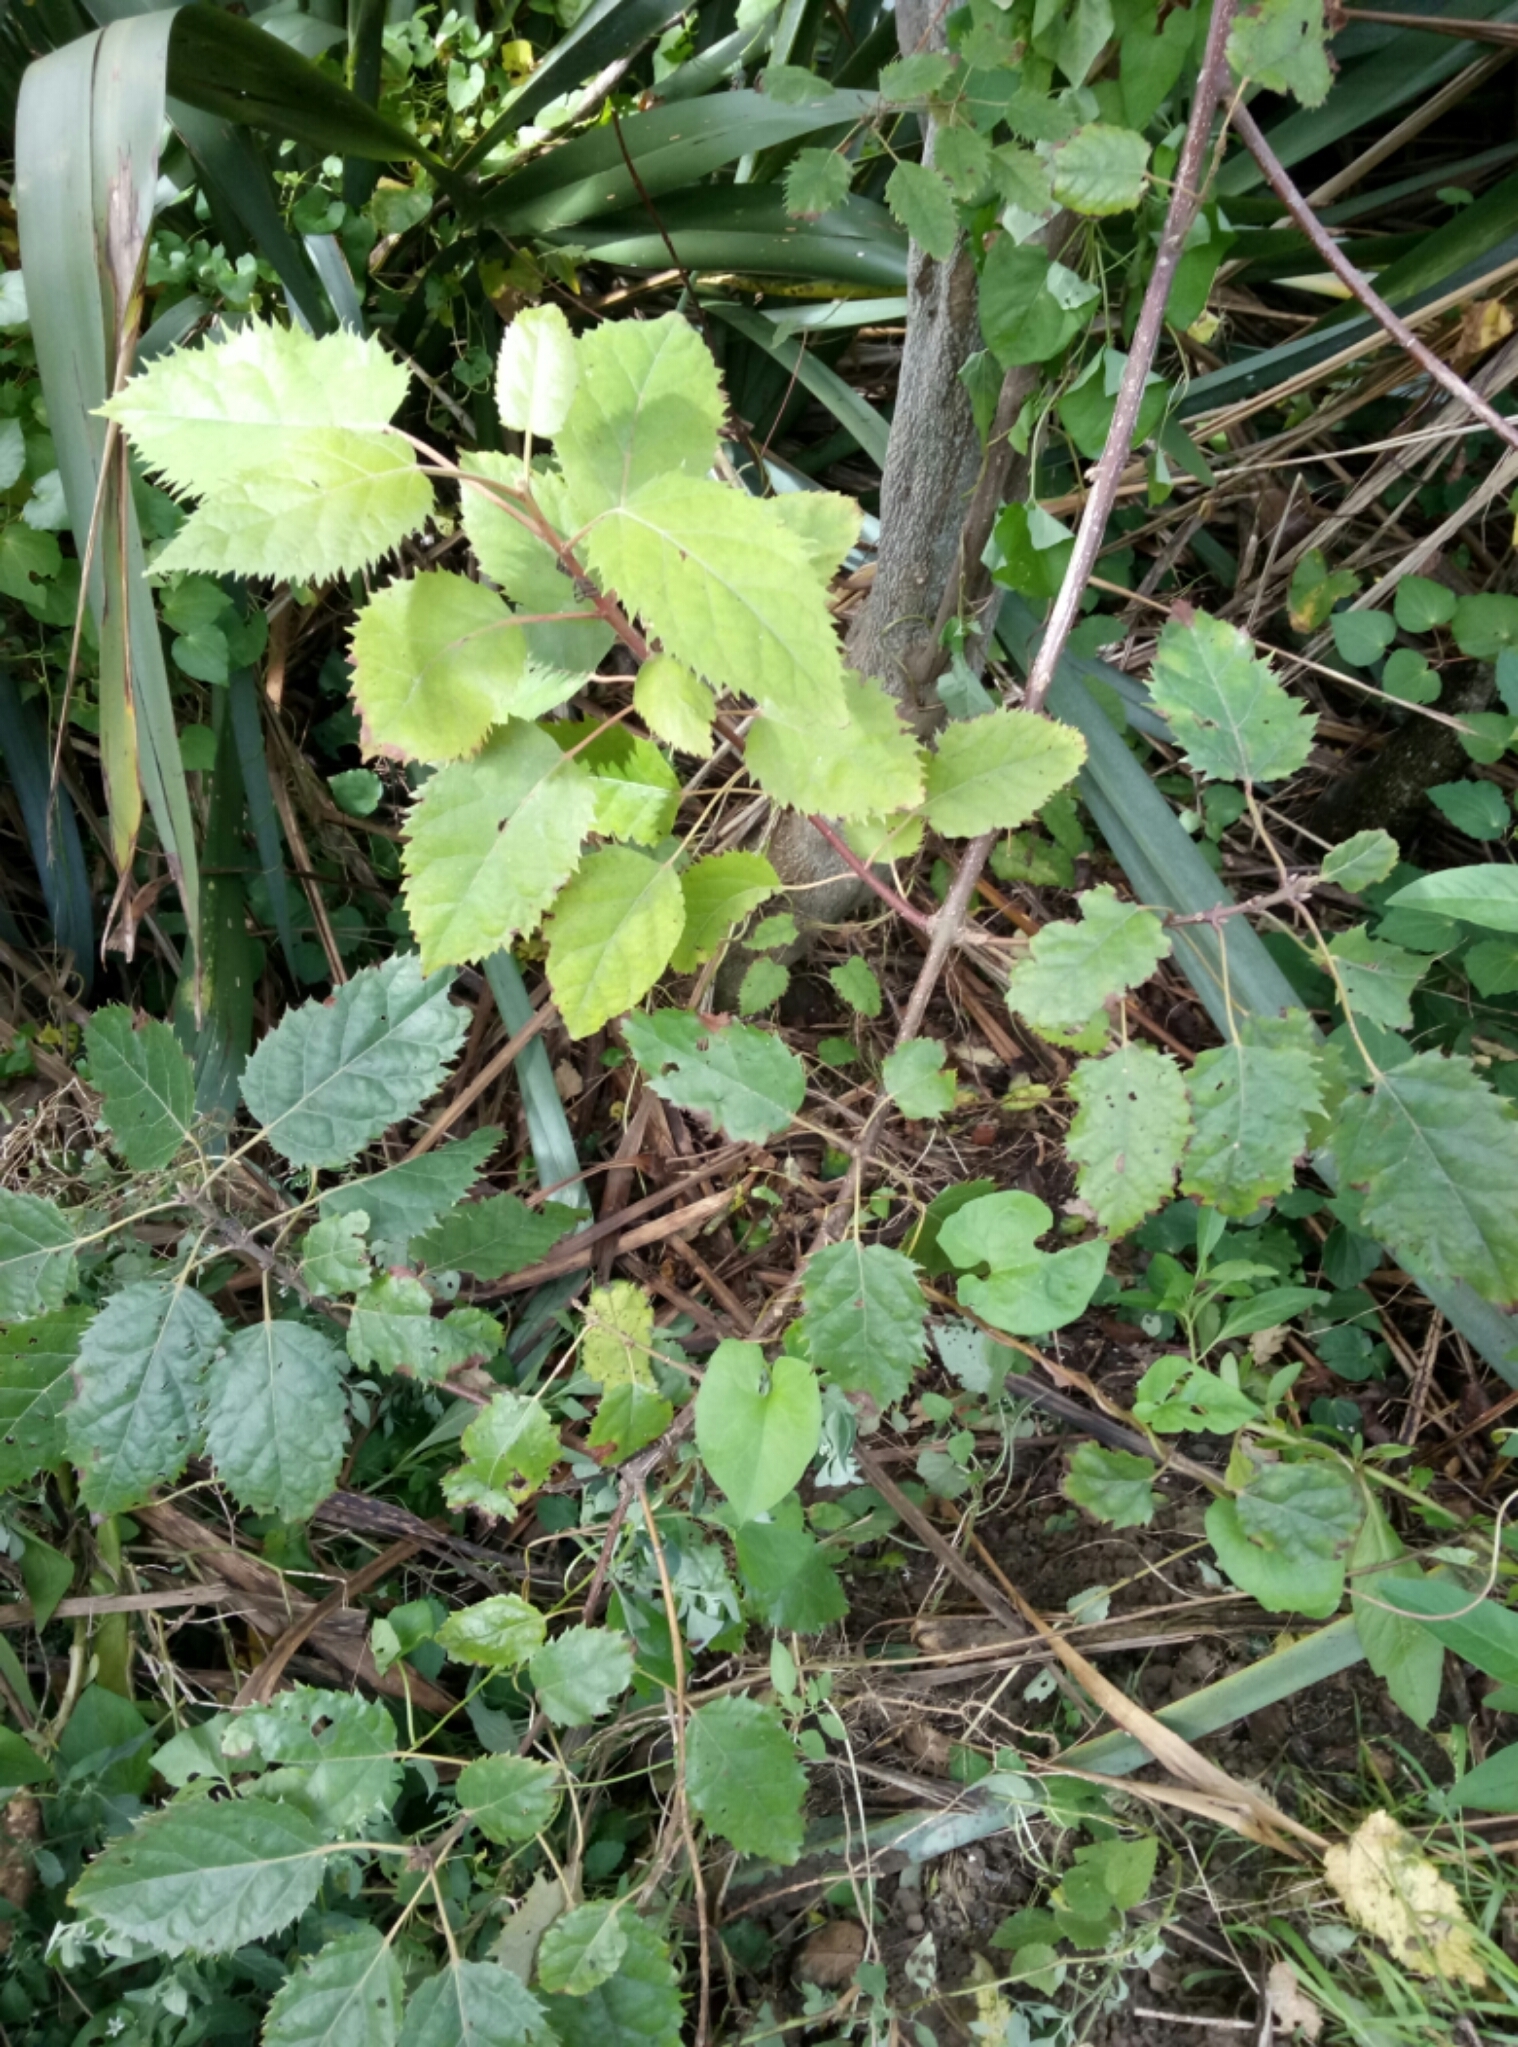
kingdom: Plantae
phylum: Tracheophyta
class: Magnoliopsida
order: Oxalidales
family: Elaeocarpaceae
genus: Aristotelia
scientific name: Aristotelia serrata
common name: New zealand wineberry
